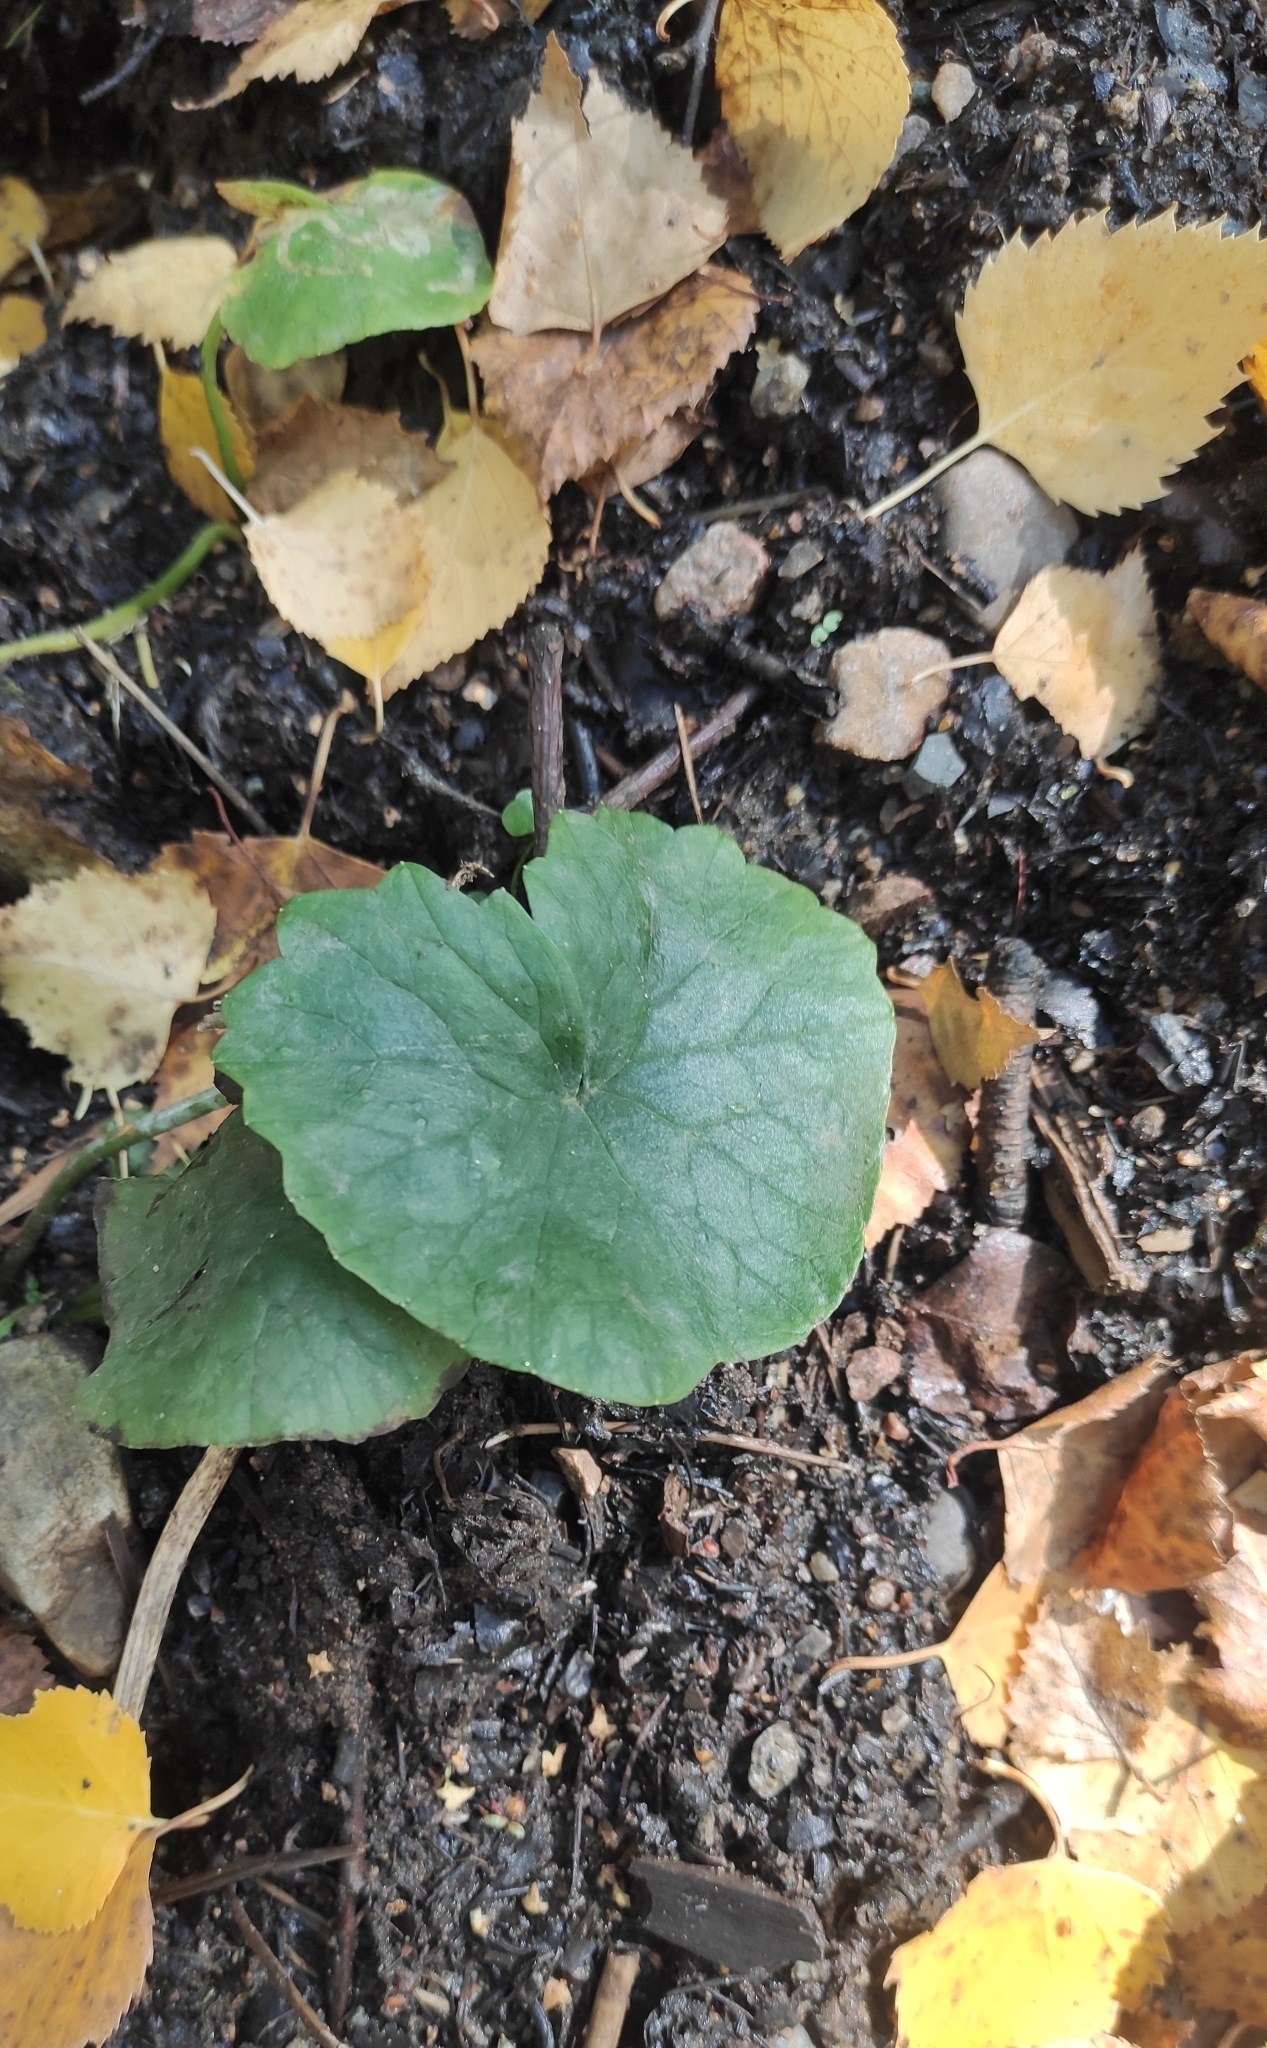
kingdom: Plantae
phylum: Tracheophyta
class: Magnoliopsida
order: Ranunculales
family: Ranunculaceae
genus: Caltha
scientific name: Caltha palustris
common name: Marsh marigold
